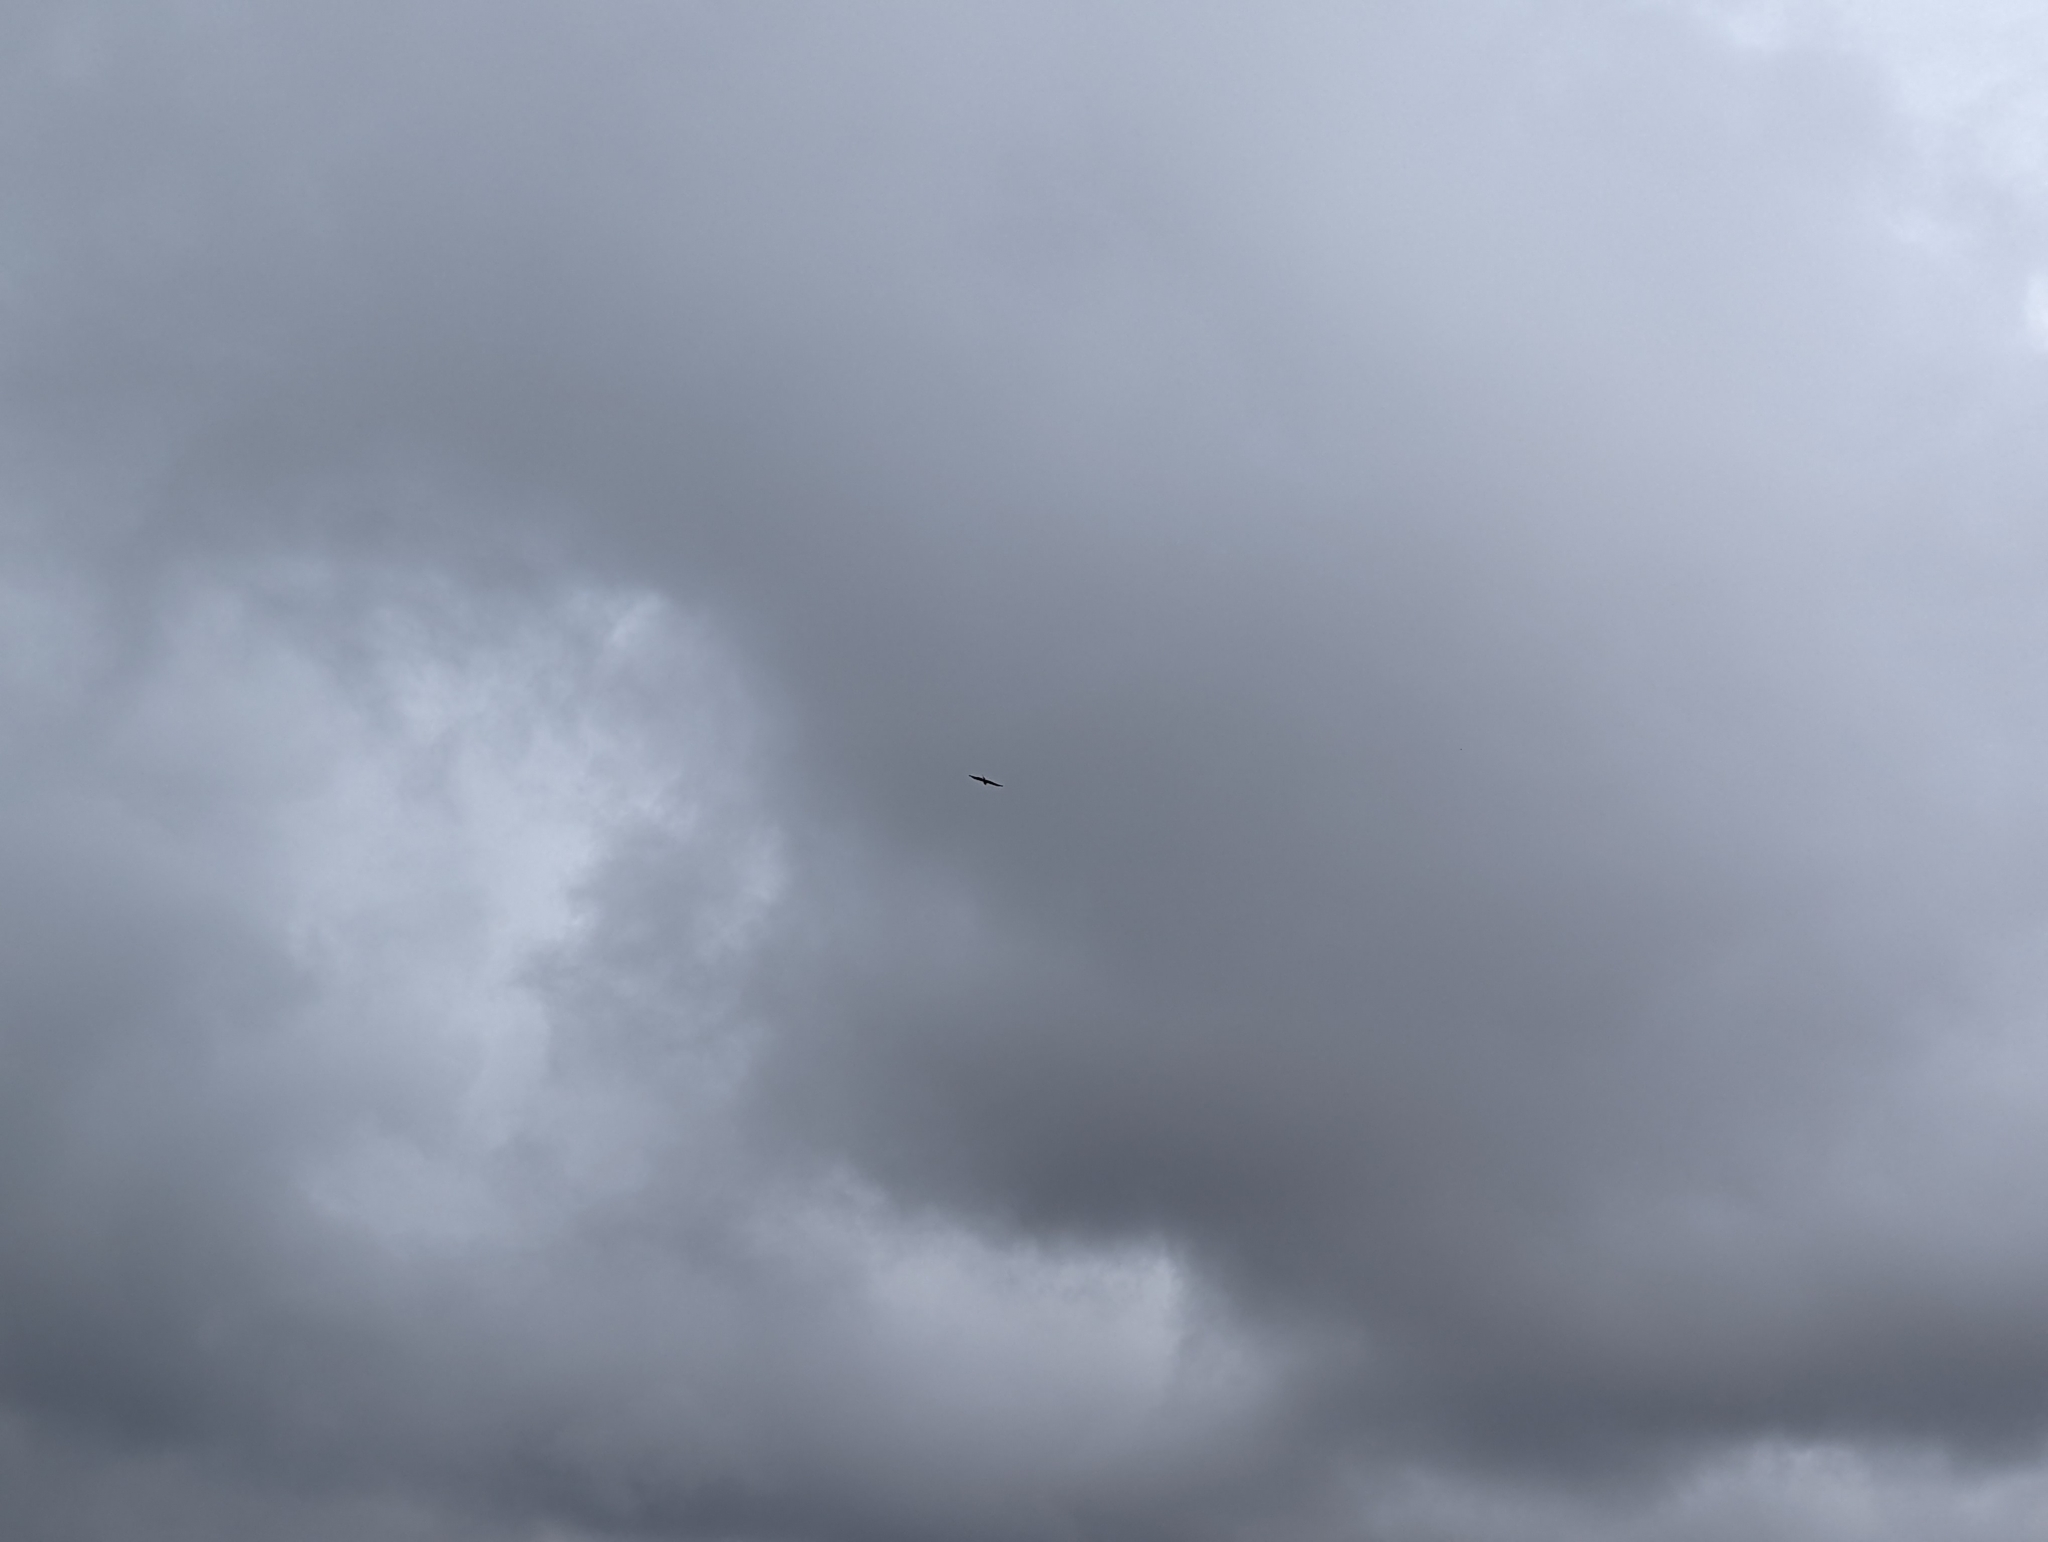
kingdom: Animalia
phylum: Chordata
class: Aves
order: Accipitriformes
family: Accipitridae
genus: Milvus
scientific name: Milvus milvus
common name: Red kite
